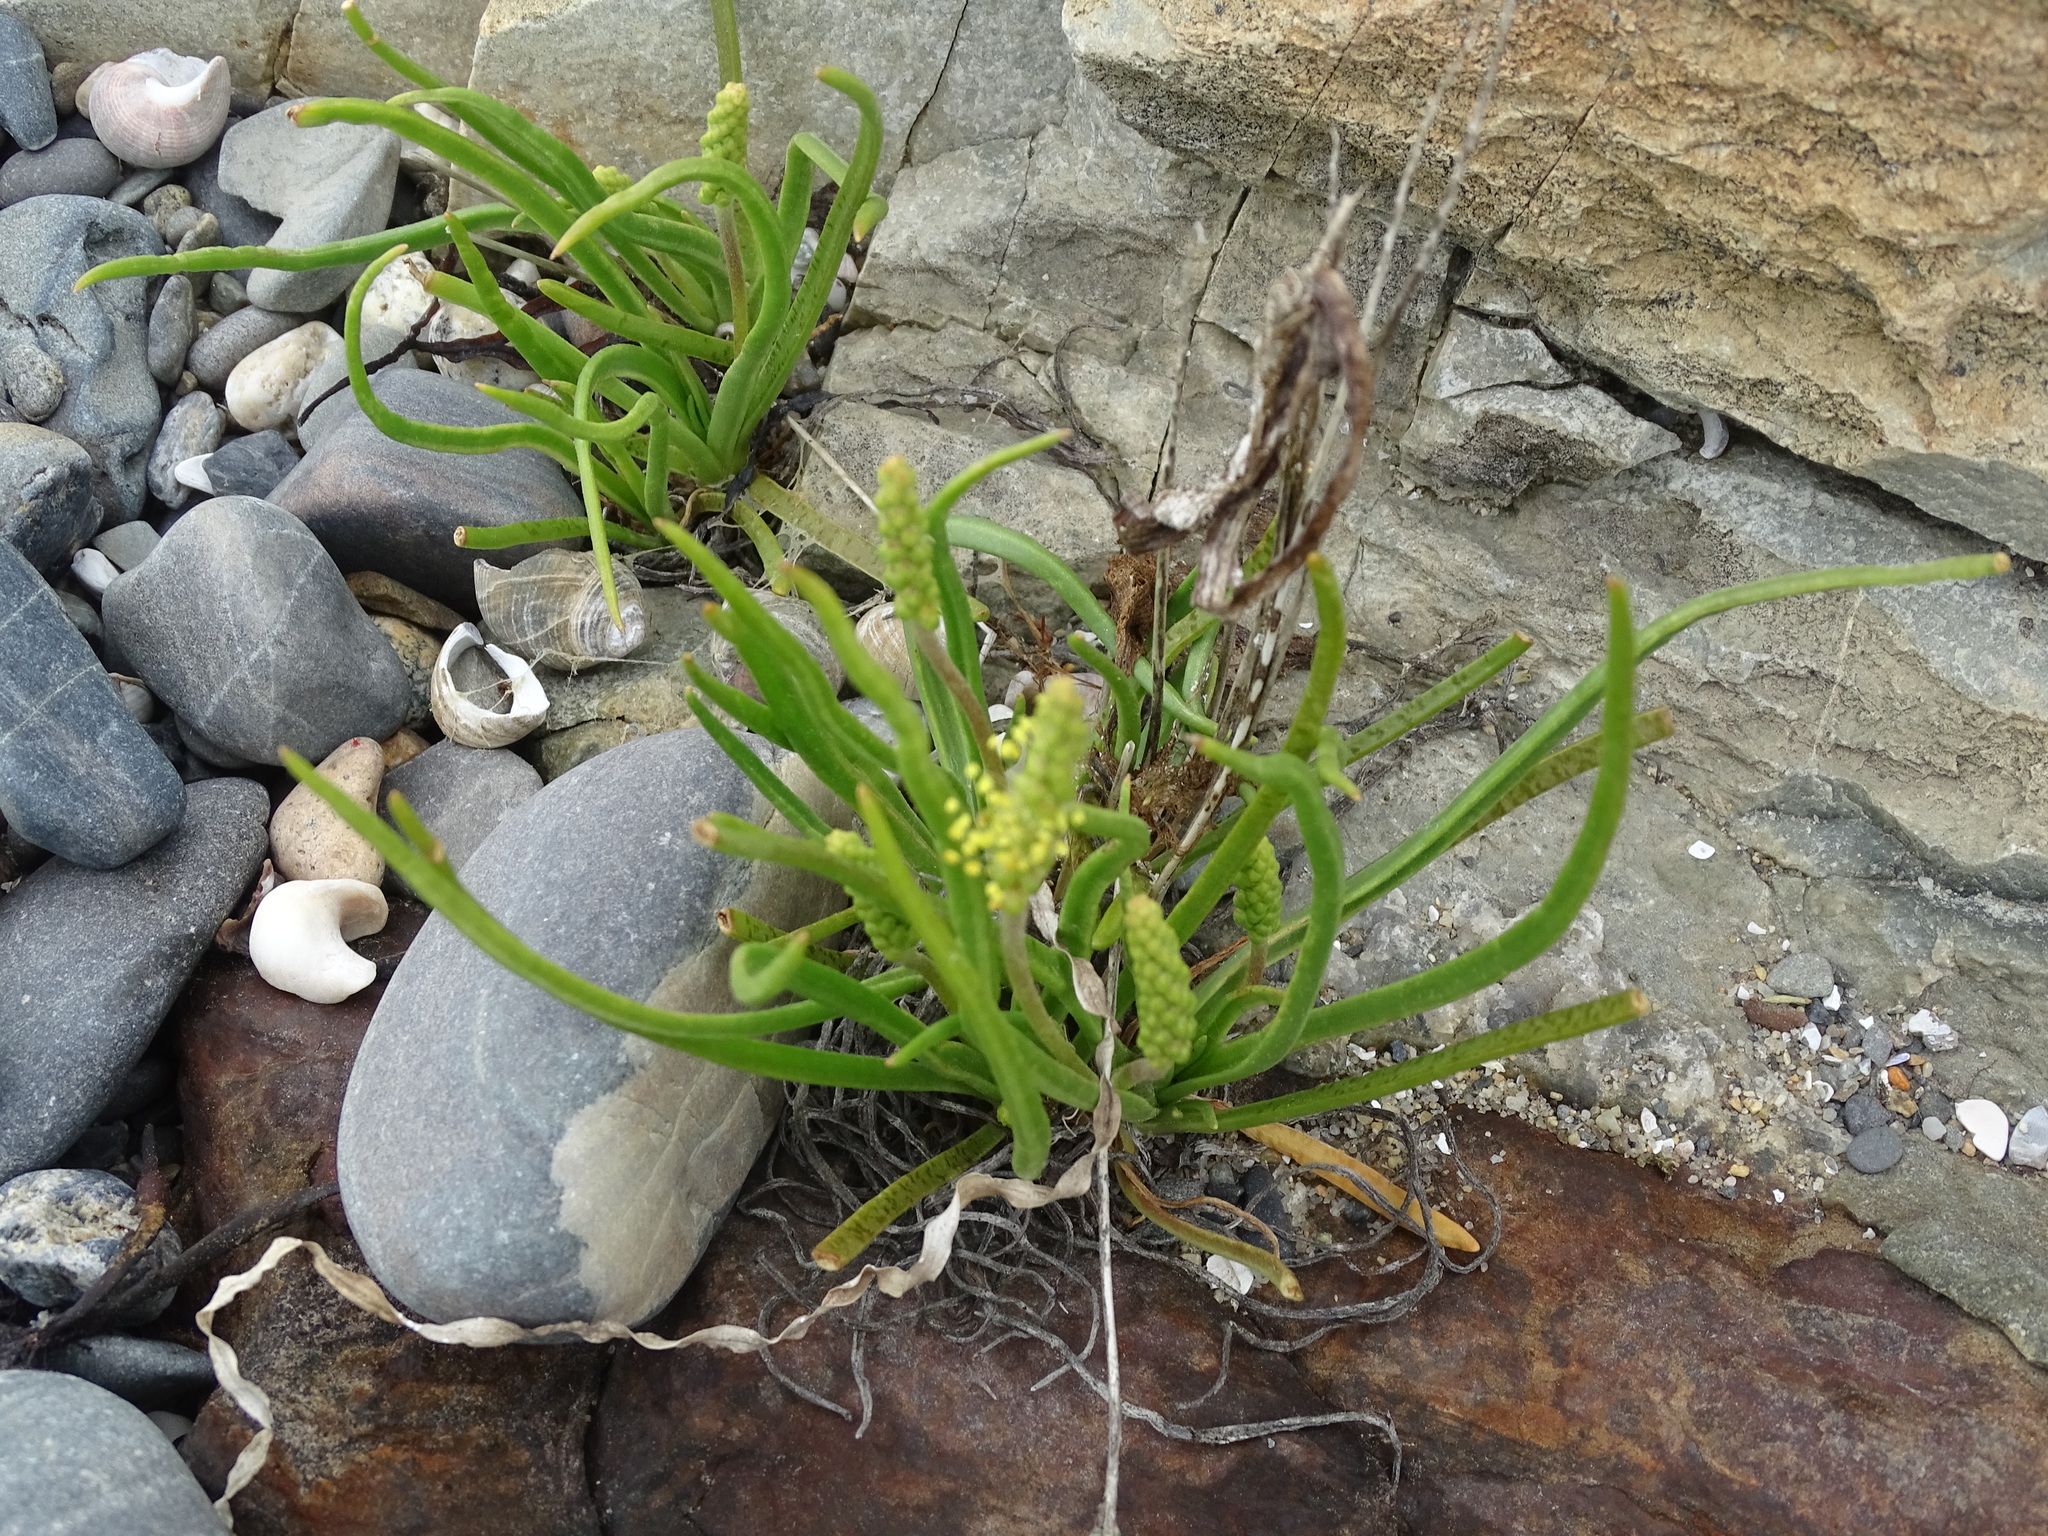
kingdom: Plantae
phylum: Tracheophyta
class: Magnoliopsida
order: Lamiales
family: Plantaginaceae
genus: Plantago
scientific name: Plantago maritima
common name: Sea plantain
